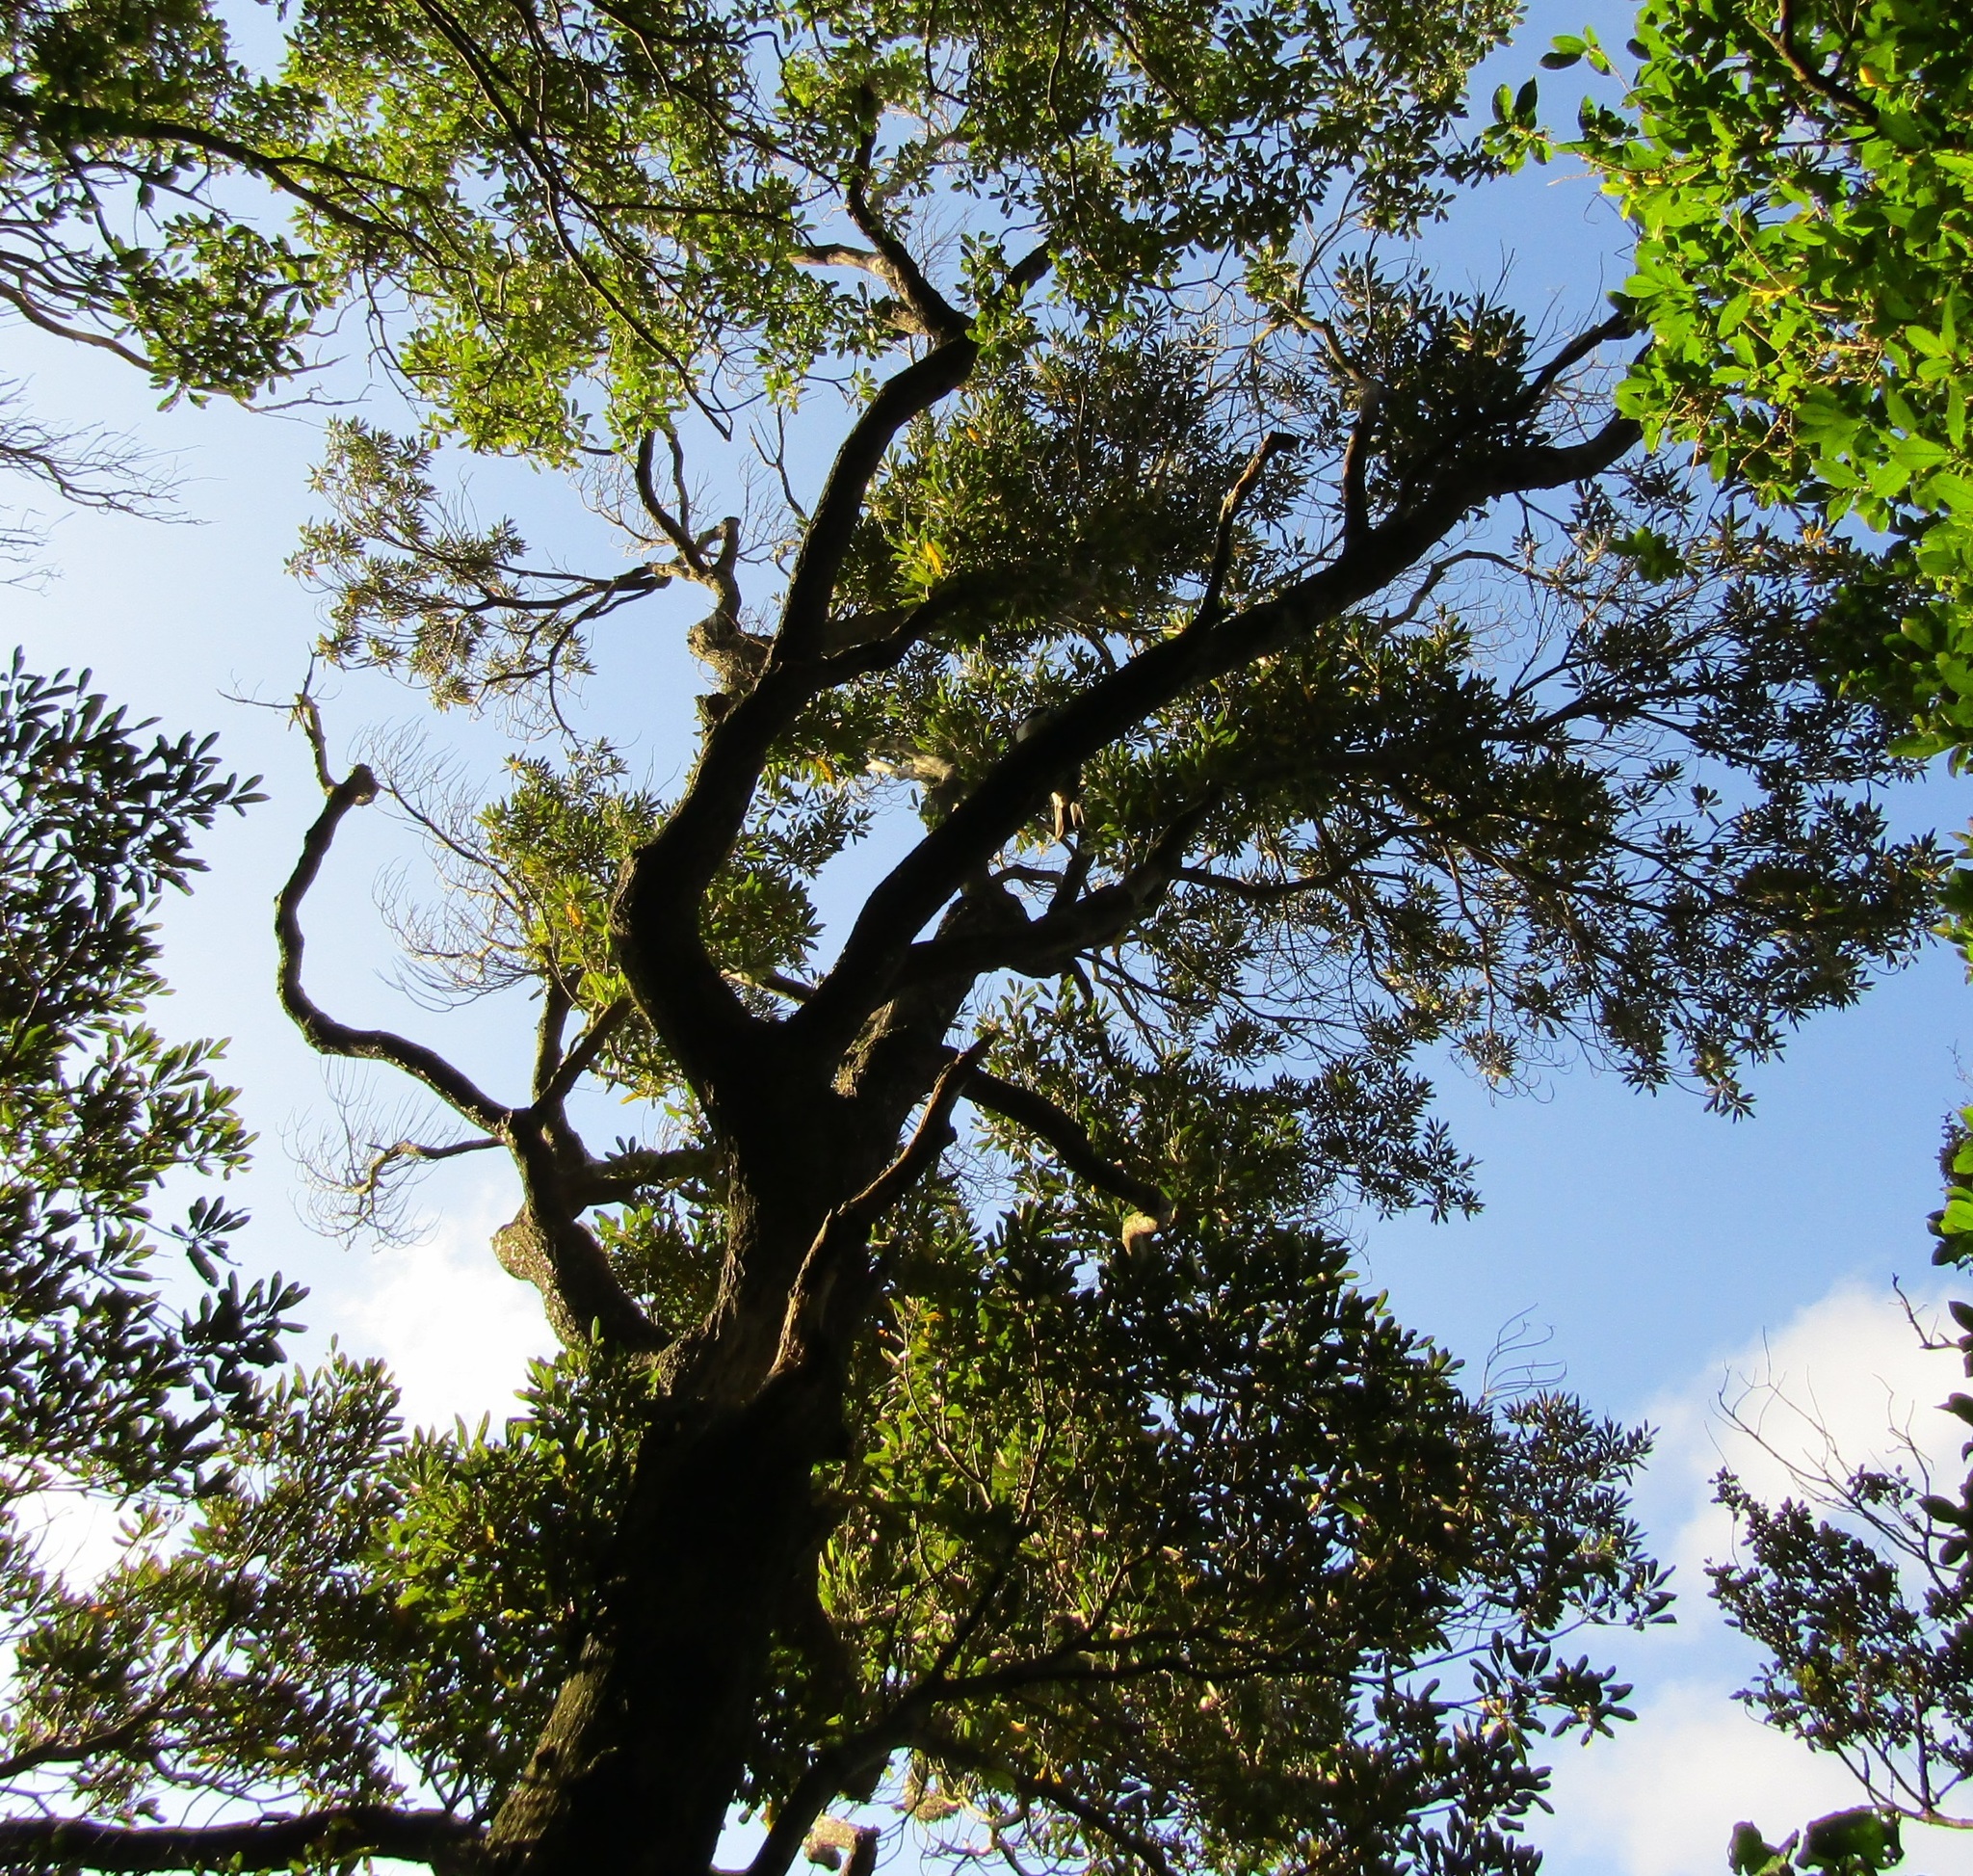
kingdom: Plantae
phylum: Tracheophyta
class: Magnoliopsida
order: Oxalidales
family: Elaeocarpaceae
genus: Elaeocarpus
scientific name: Elaeocarpus dentatus
